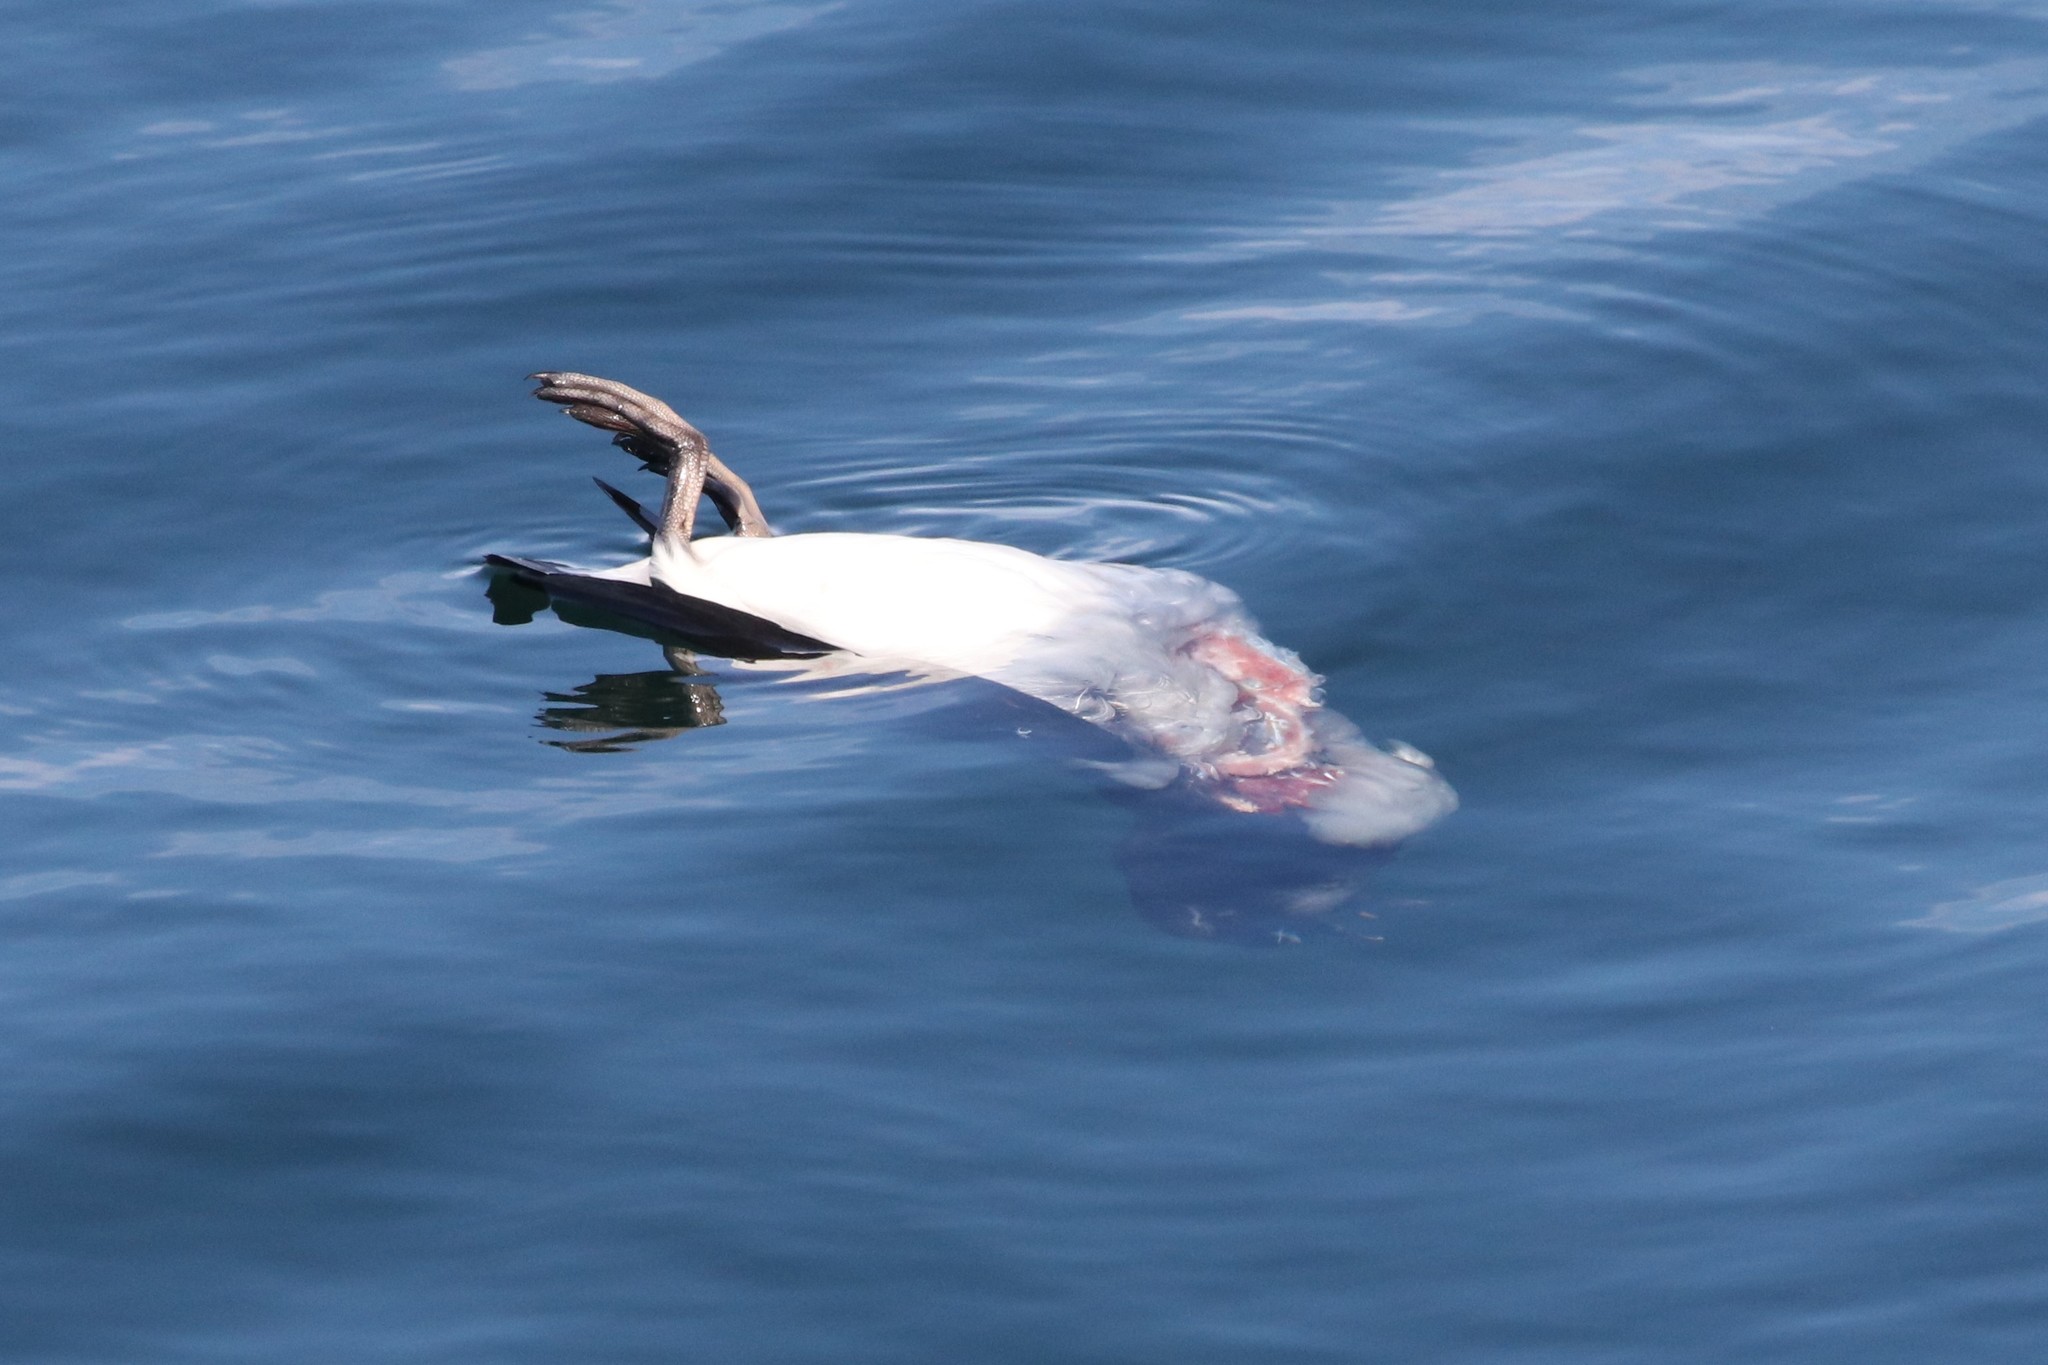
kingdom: Animalia
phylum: Chordata
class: Aves
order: Charadriiformes
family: Alcidae
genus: Uria
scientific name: Uria lomvia
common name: Thick-billed murre
